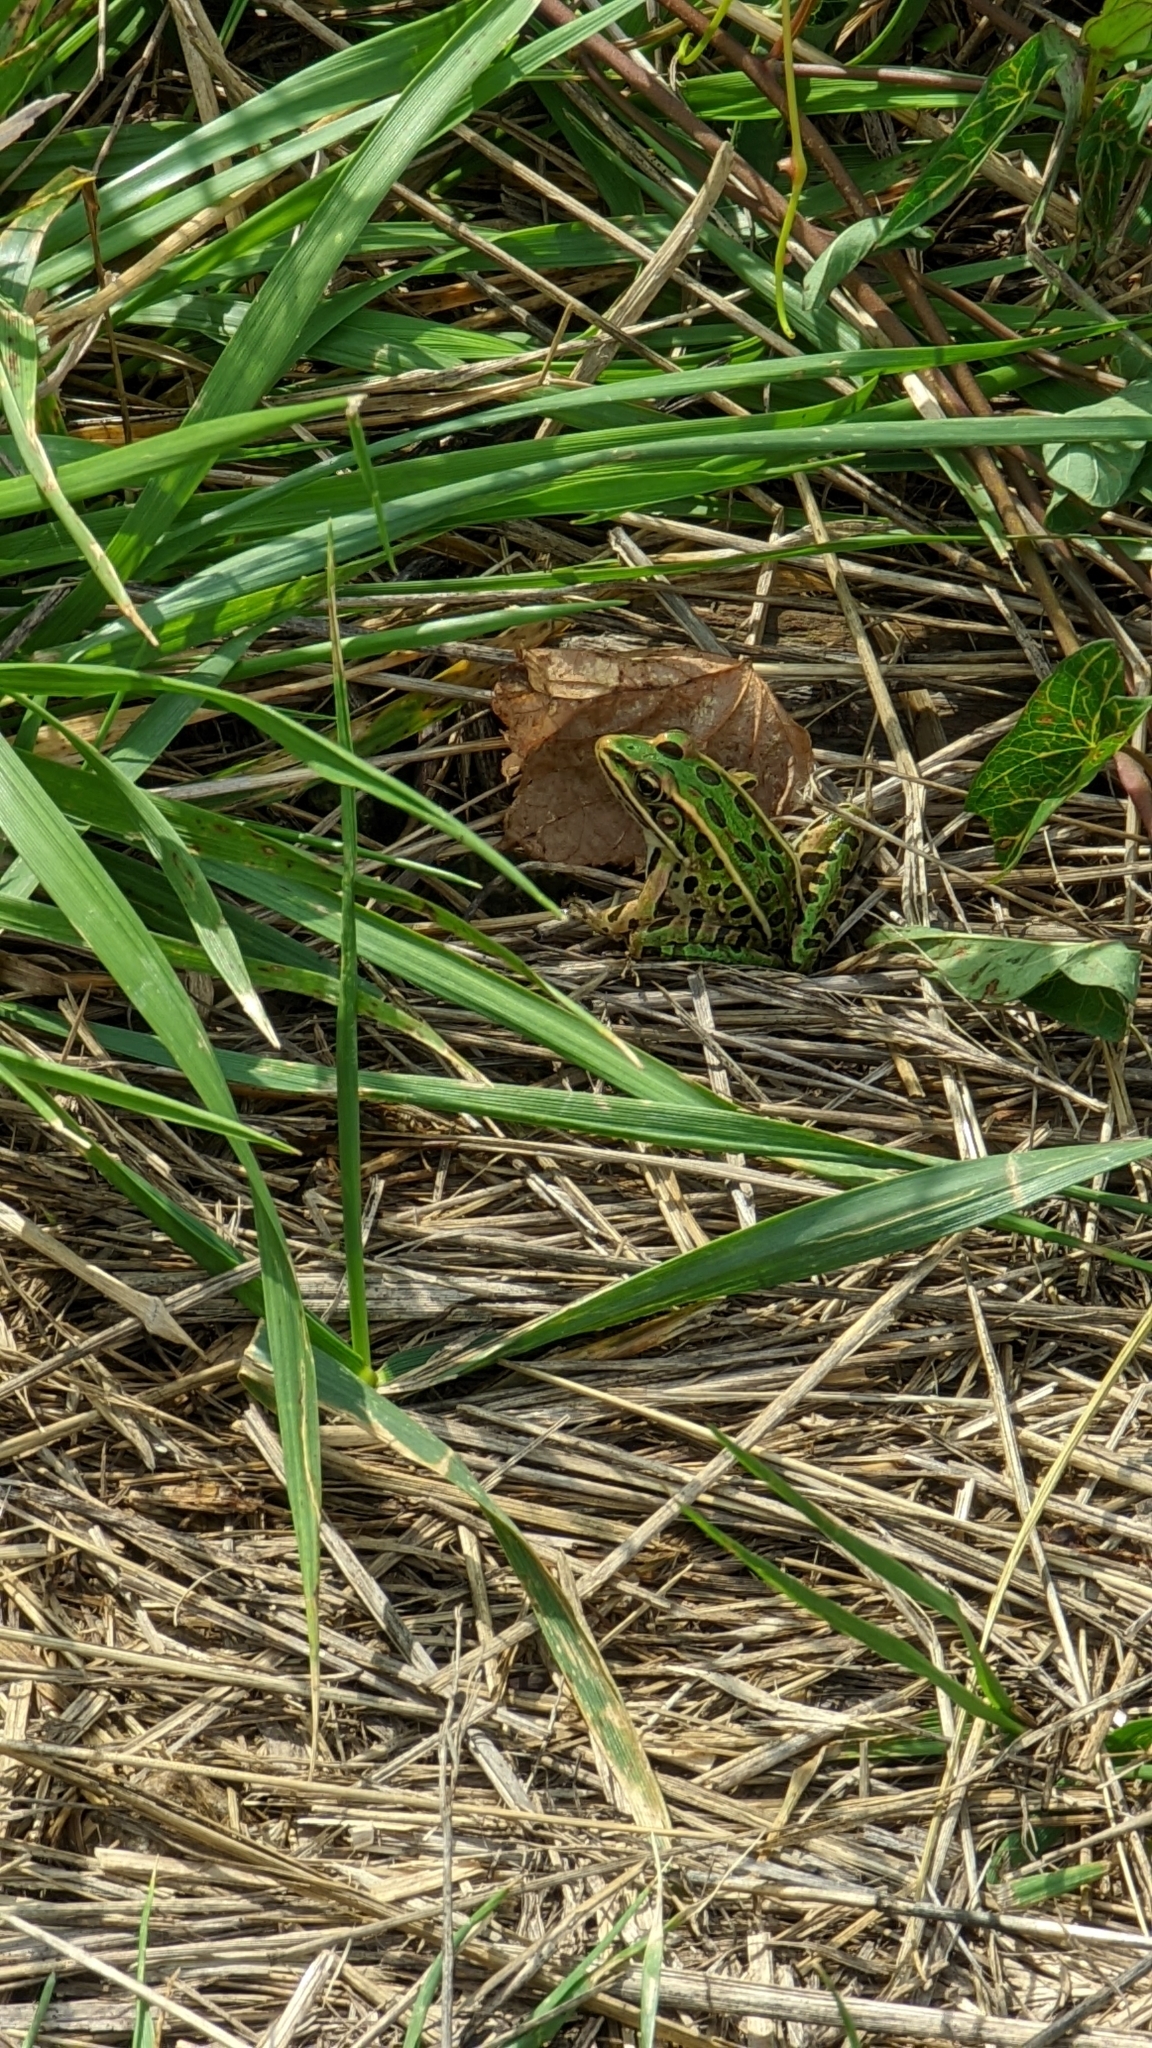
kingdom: Animalia
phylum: Chordata
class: Amphibia
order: Anura
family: Ranidae
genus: Lithobates
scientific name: Lithobates pipiens
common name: Northern leopard frog
